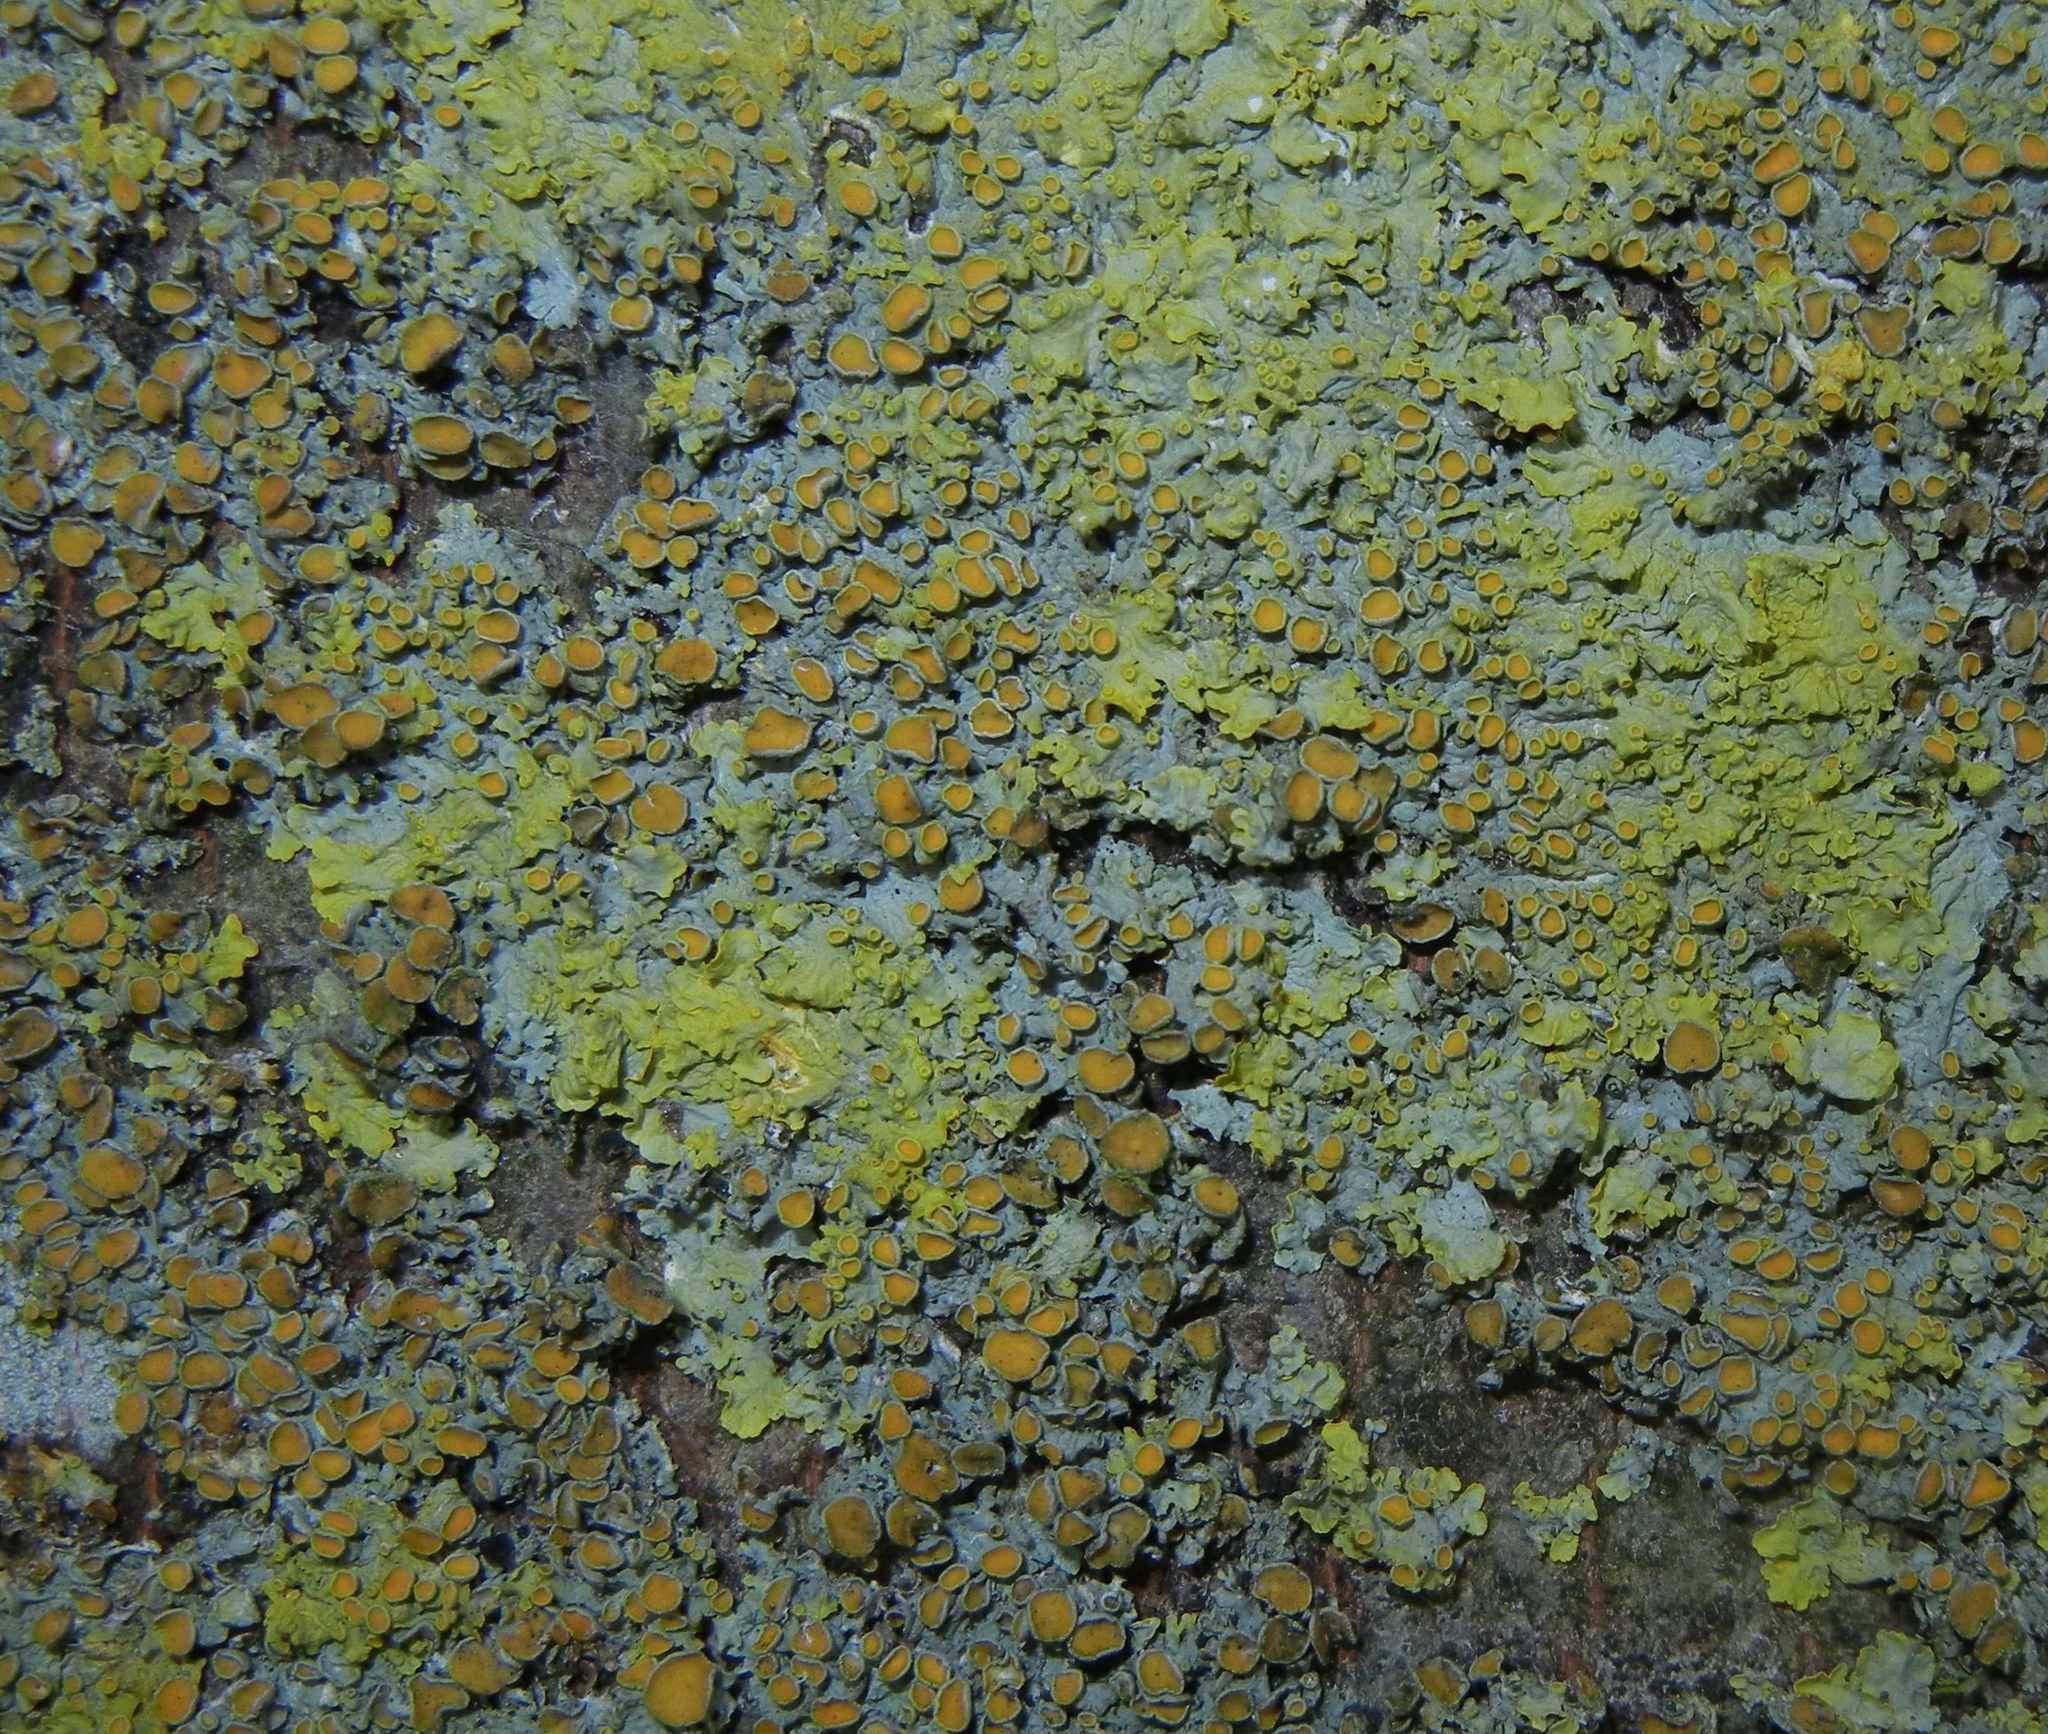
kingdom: Fungi
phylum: Ascomycota
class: Lecanoromycetes
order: Teloschistales
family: Teloschistaceae
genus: Xanthoria
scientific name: Xanthoria parietina
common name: Common orange lichen
